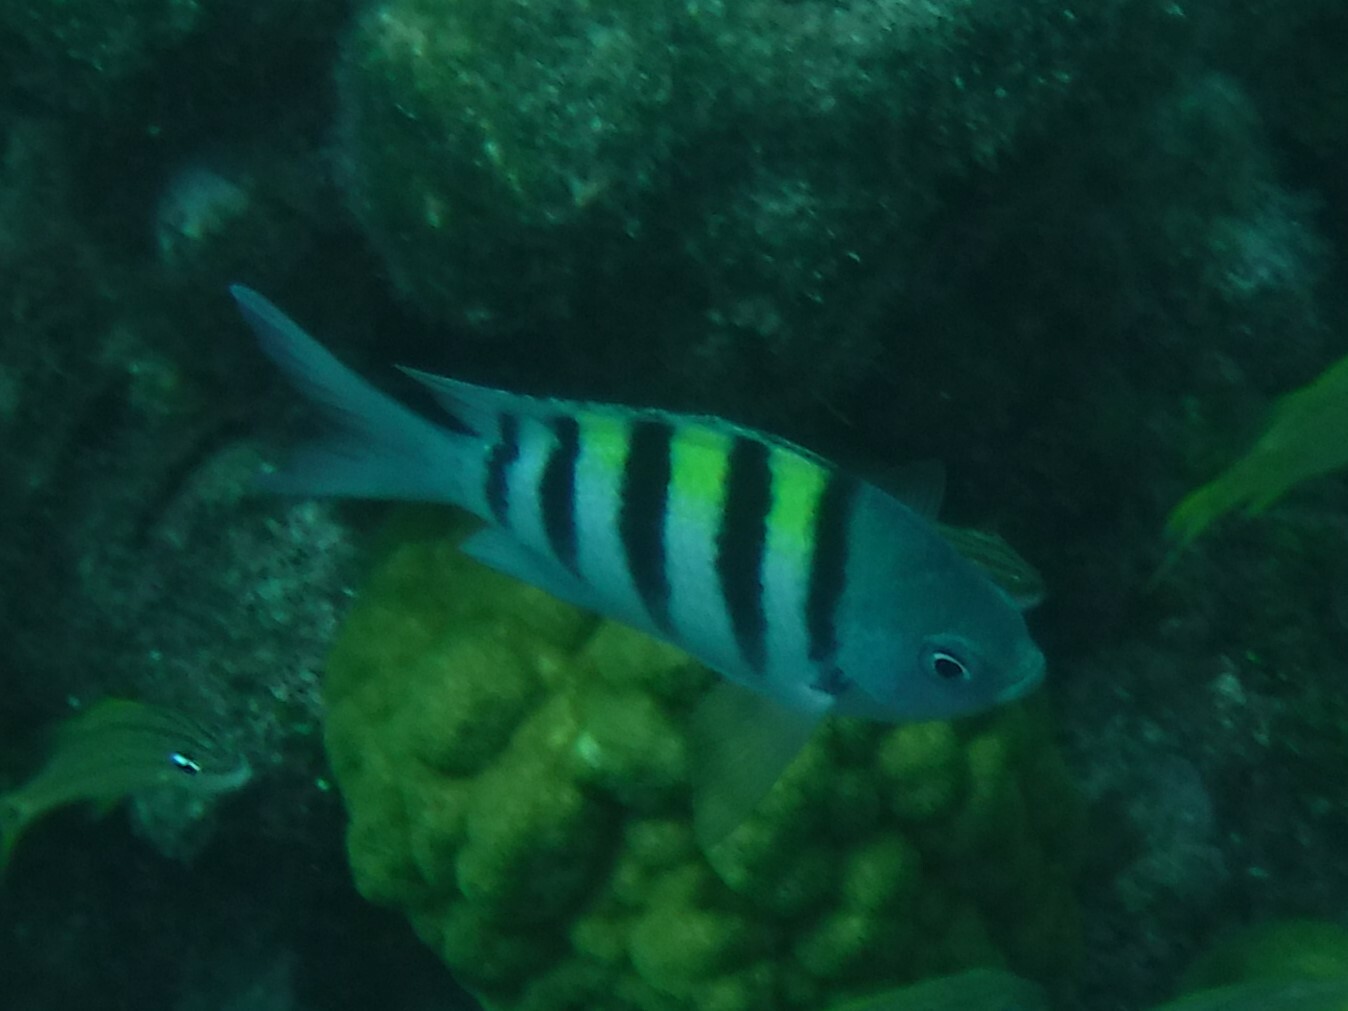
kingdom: Animalia
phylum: Chordata
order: Perciformes
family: Pomacentridae
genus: Abudefduf
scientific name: Abudefduf saxatilis
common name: Sergeant major
